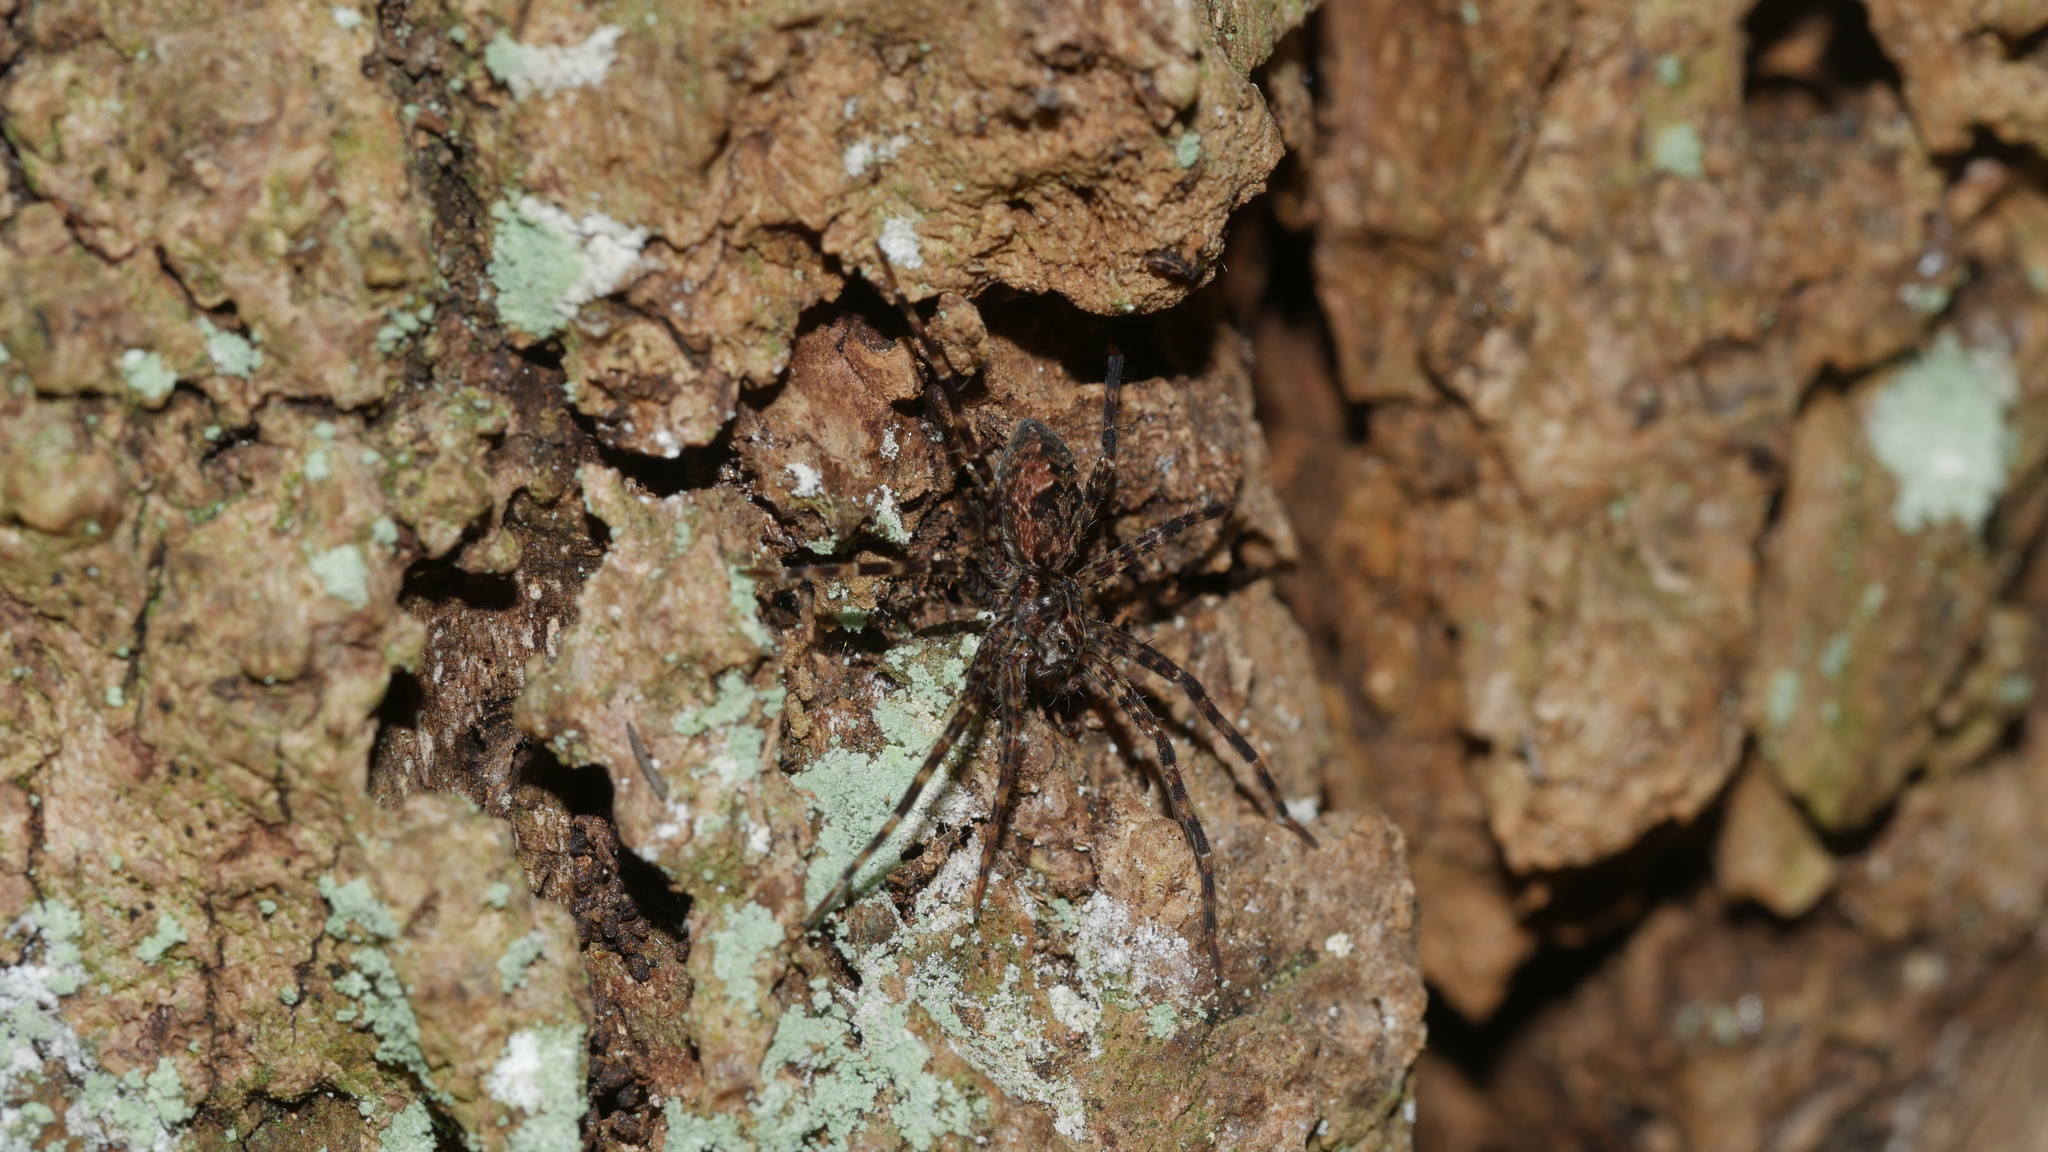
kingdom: Animalia
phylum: Arthropoda
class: Arachnida
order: Araneae
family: Pisauridae
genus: Dolomedes
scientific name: Dolomedes tenebrosus
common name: Dark fishing spider
